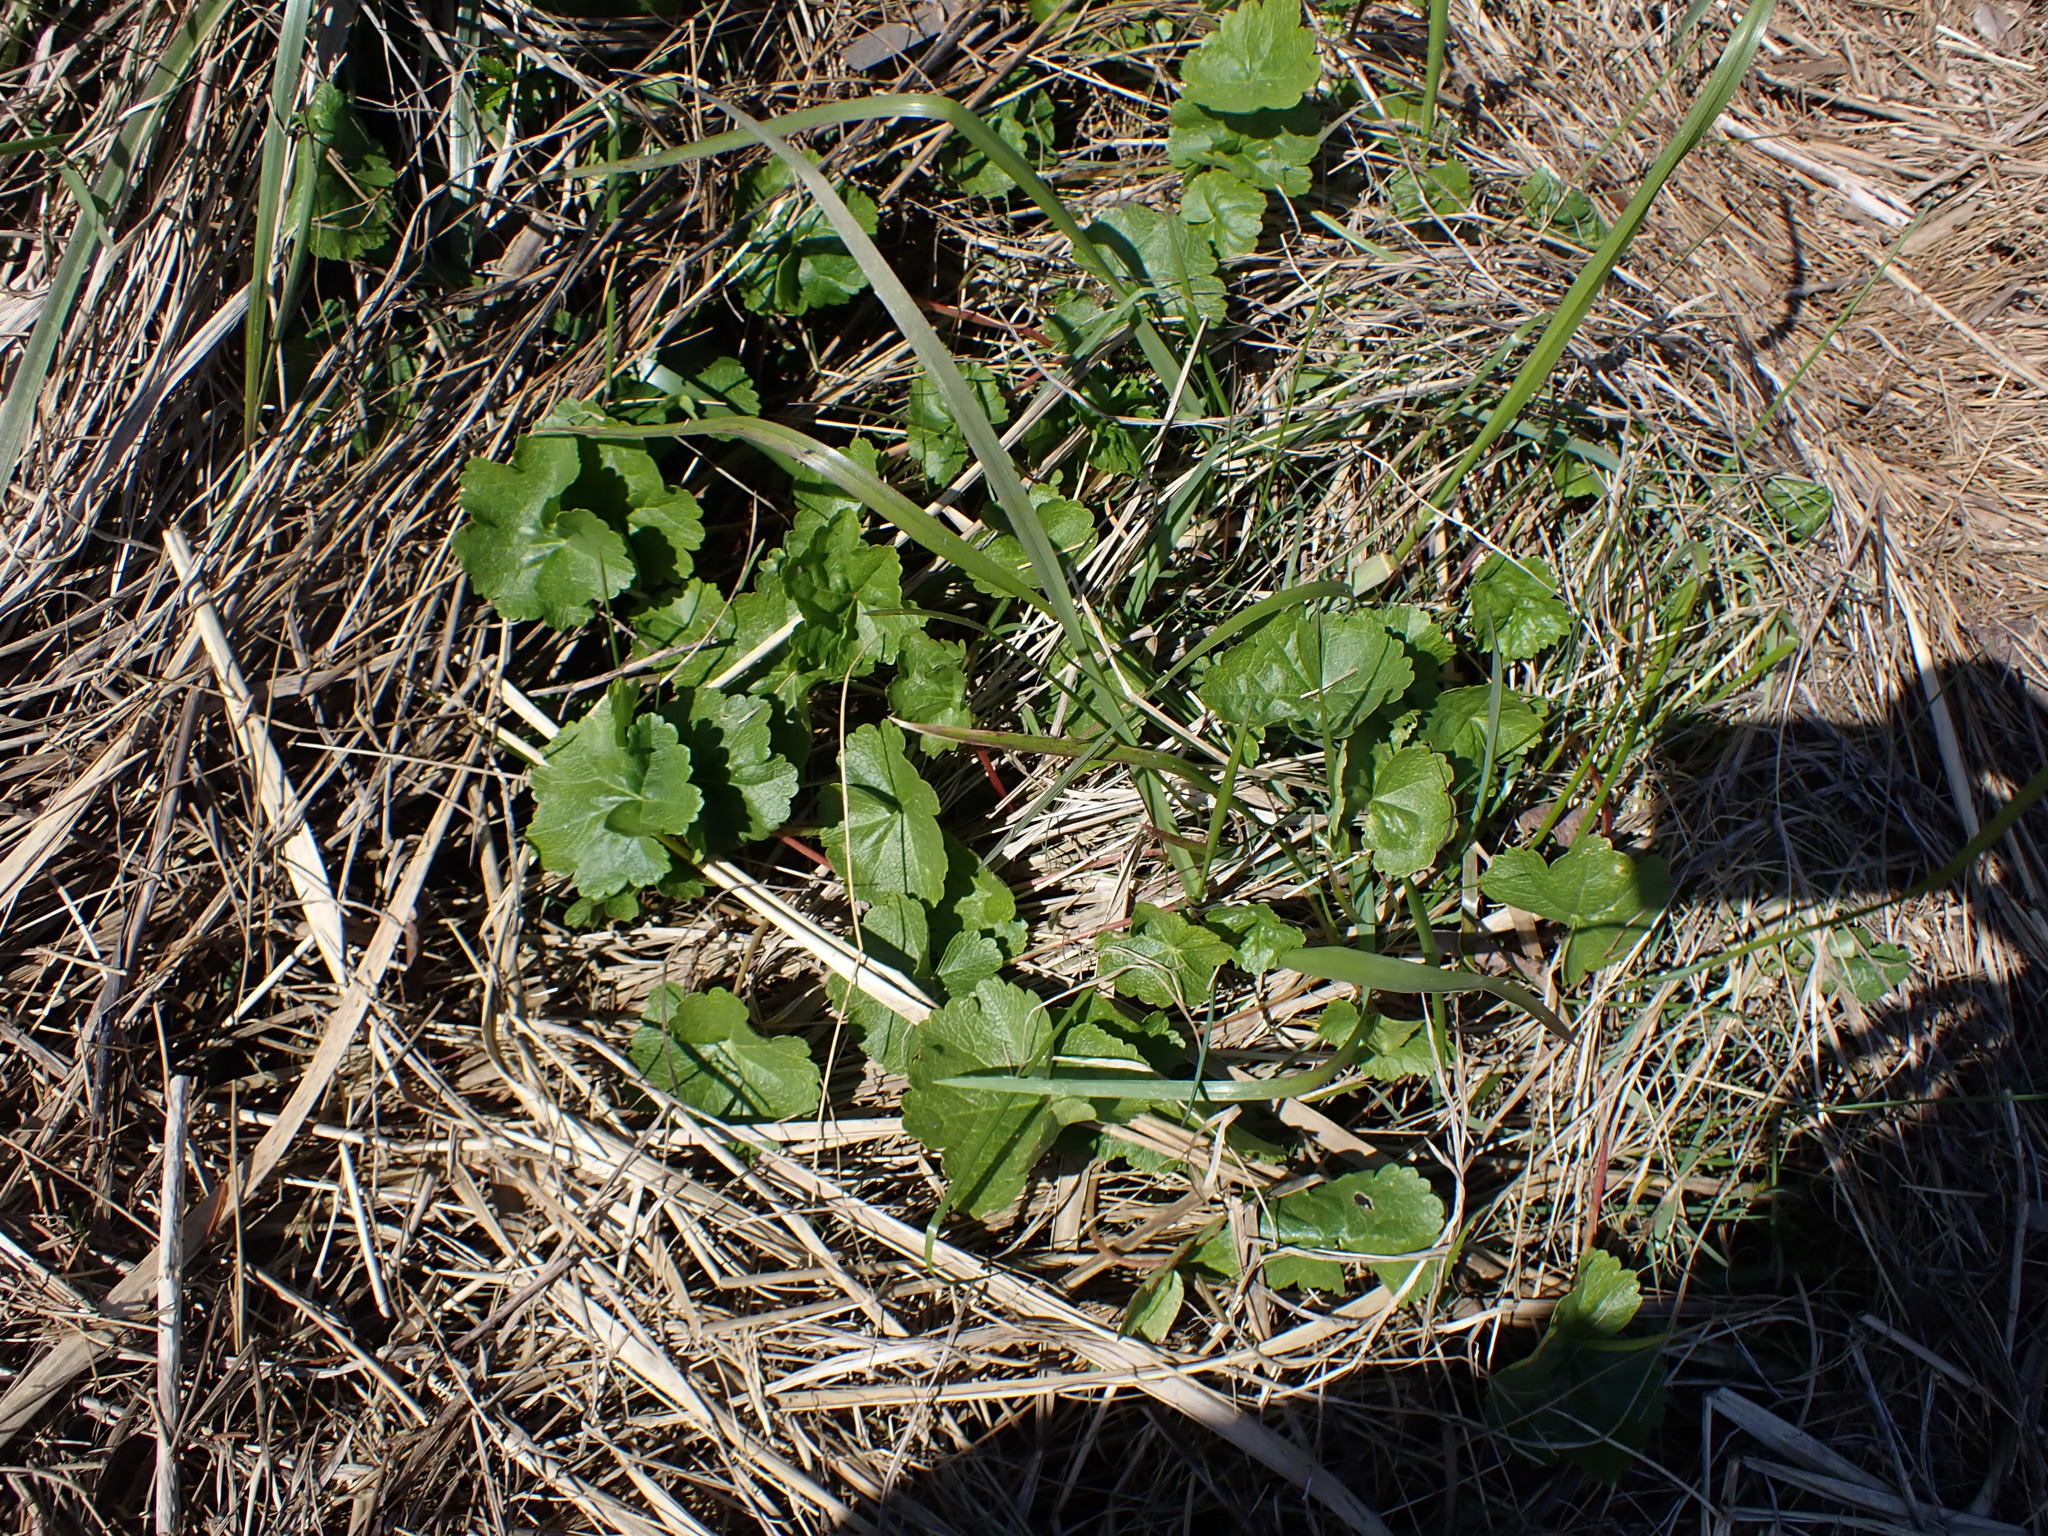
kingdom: Plantae
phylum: Tracheophyta
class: Magnoliopsida
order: Malvales
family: Malvaceae
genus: Sidalcea
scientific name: Sidalcea hendersonii
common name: Mallow
